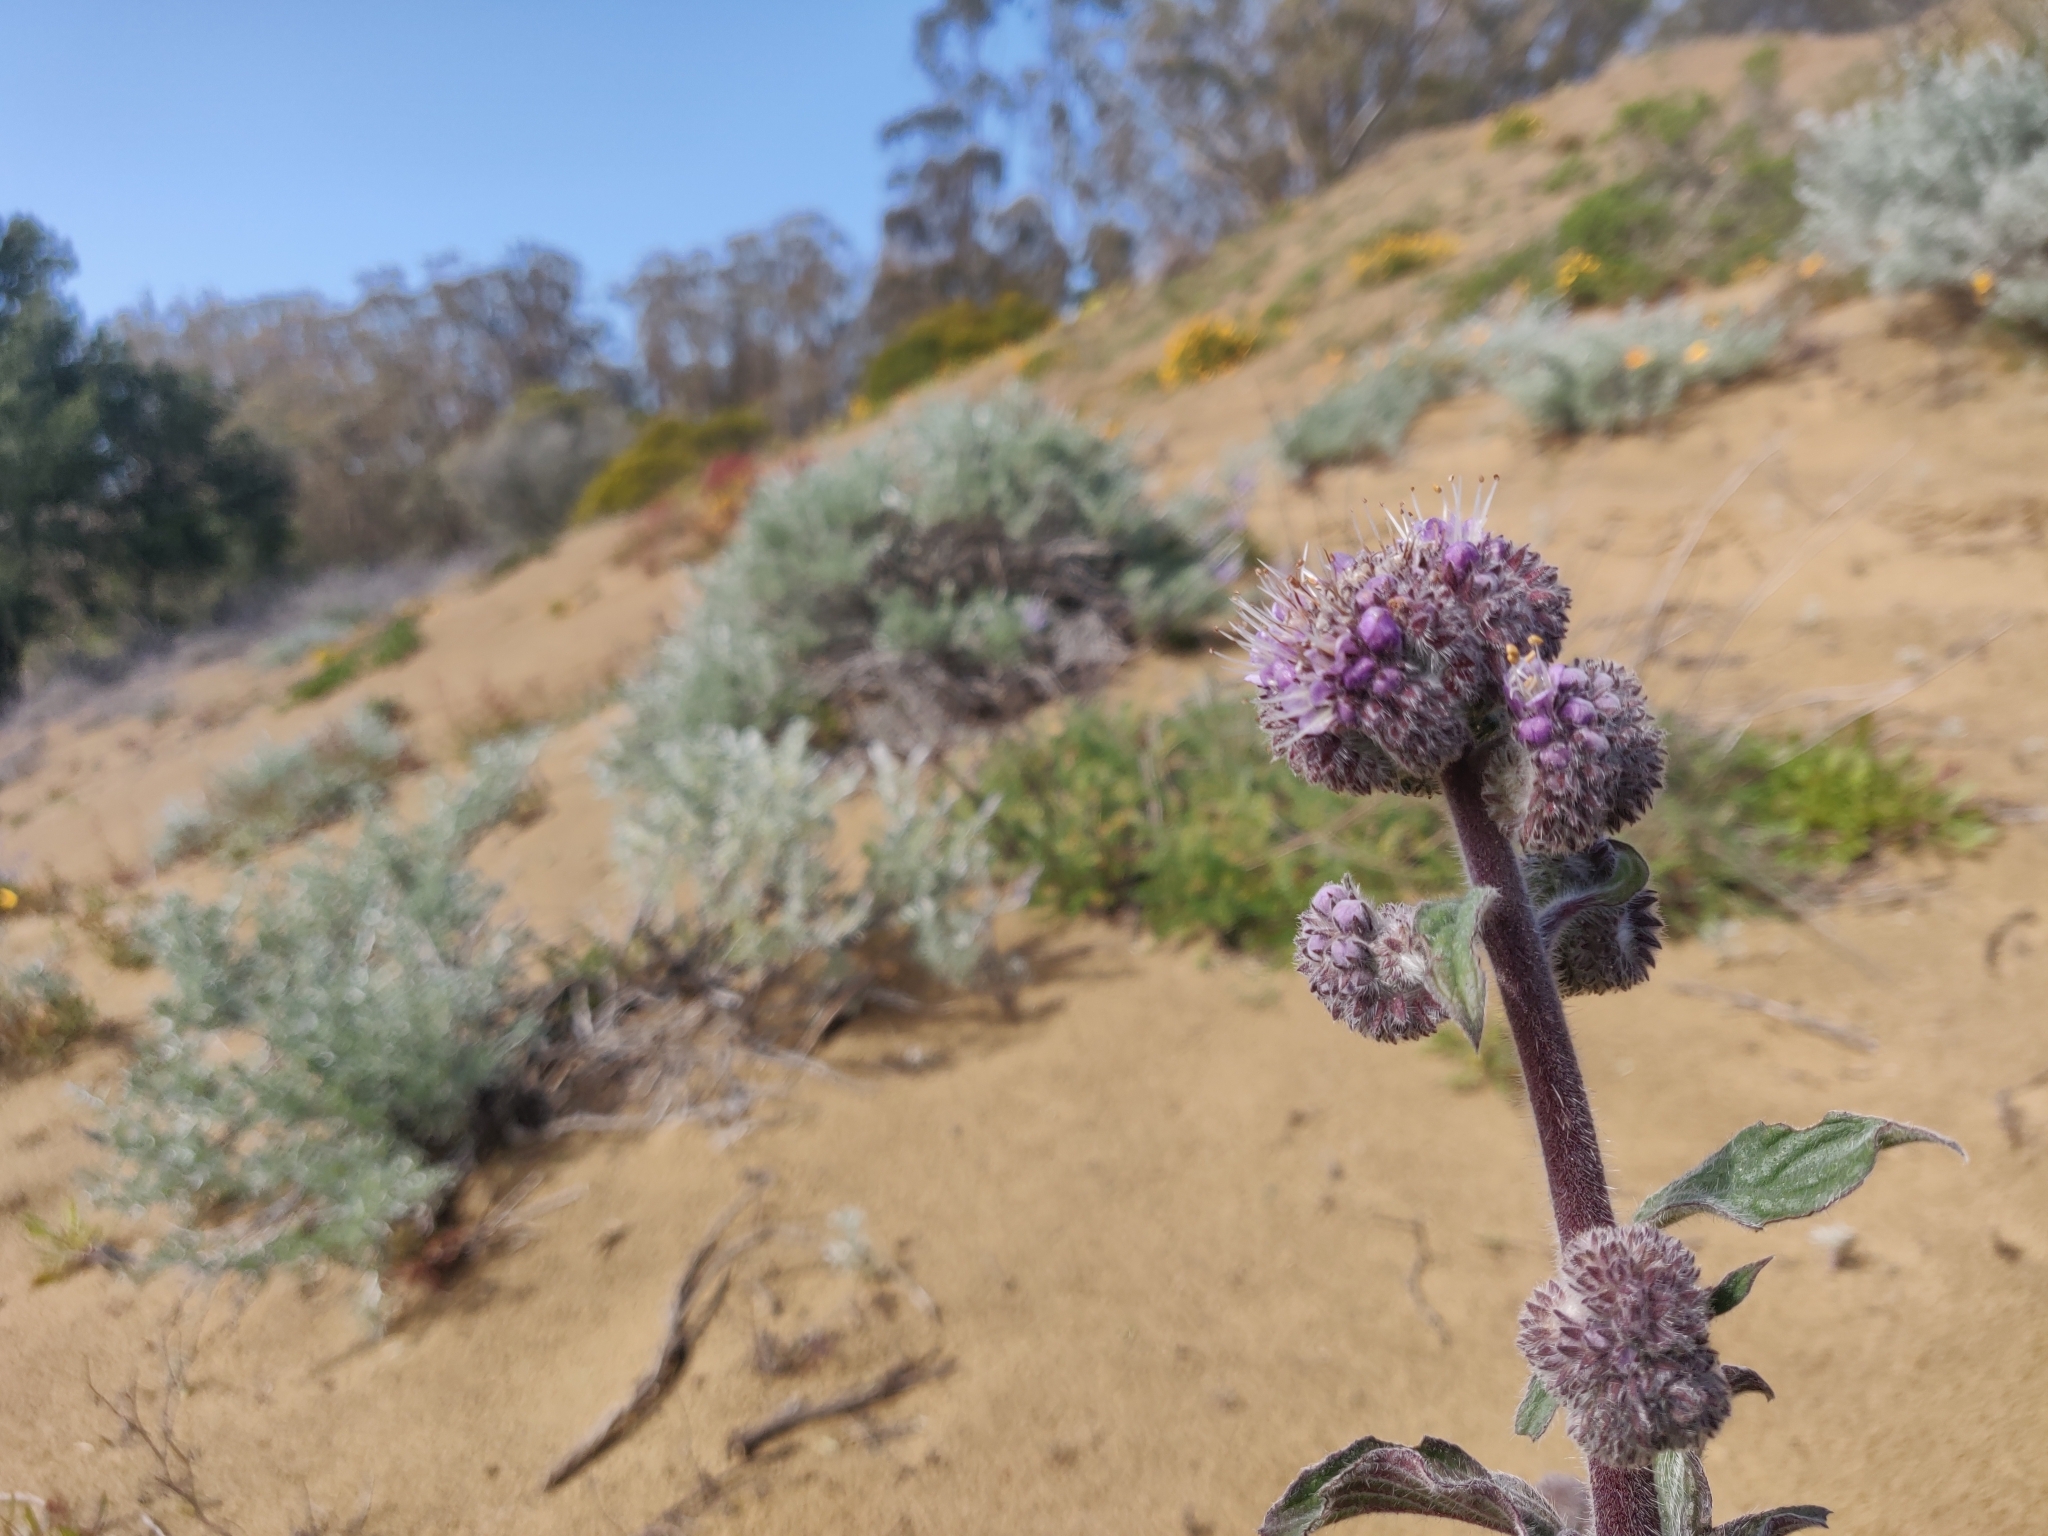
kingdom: Plantae
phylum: Tracheophyta
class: Magnoliopsida
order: Boraginales
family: Hydrophyllaceae
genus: Phacelia
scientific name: Phacelia californica
